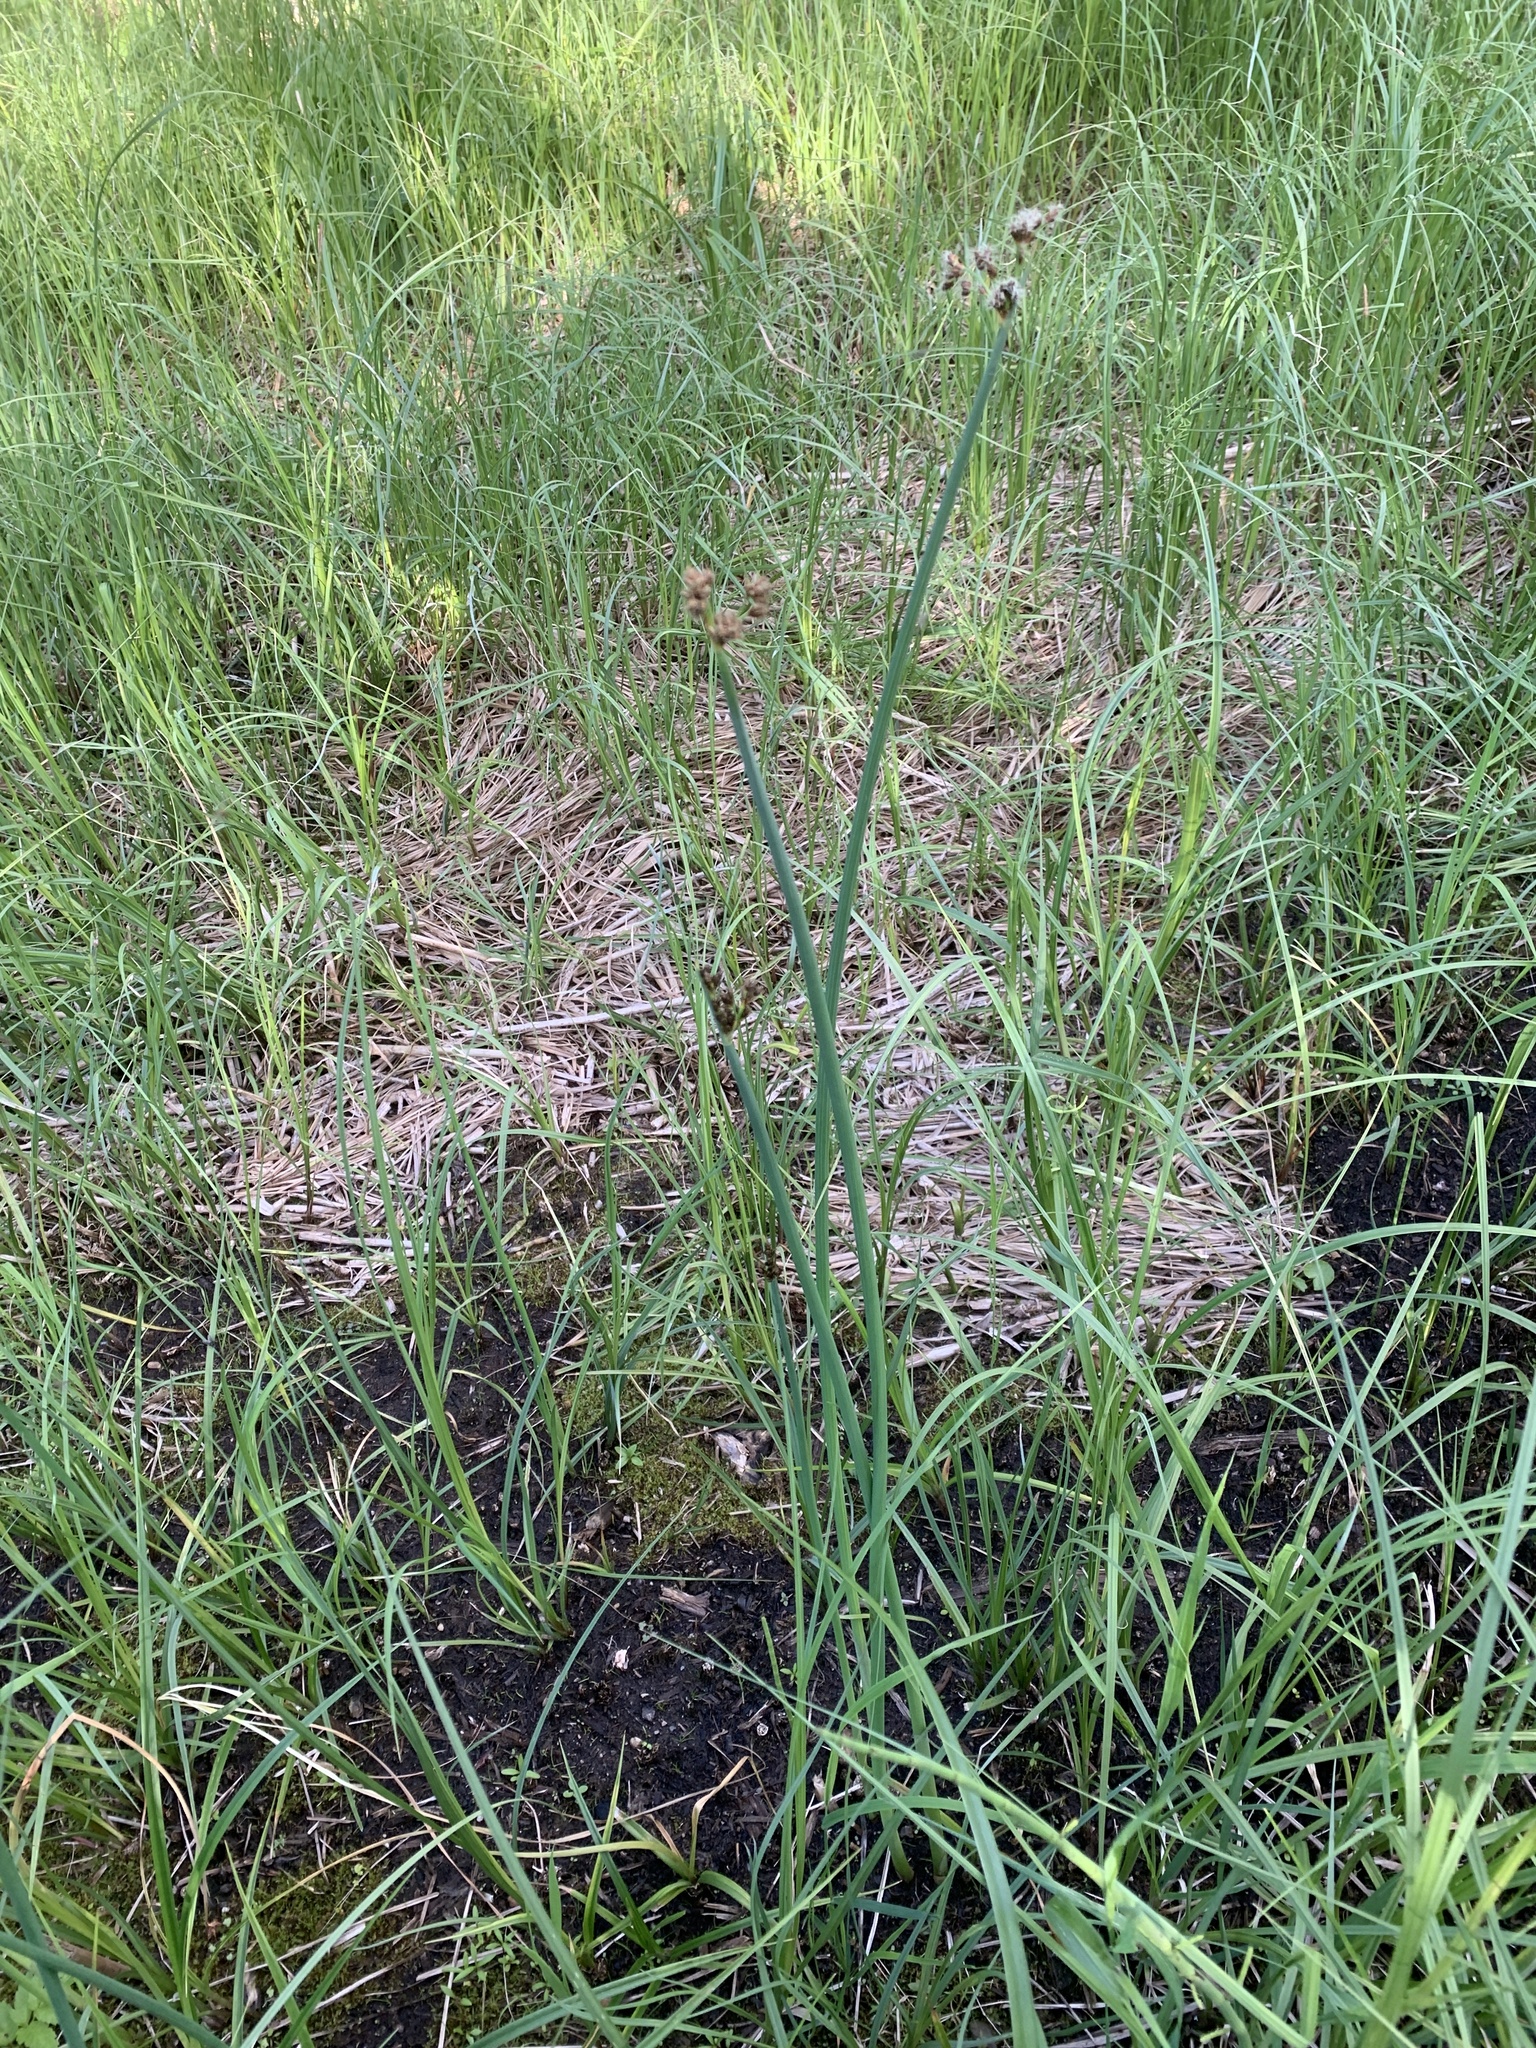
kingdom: Plantae
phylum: Tracheophyta
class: Liliopsida
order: Poales
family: Cyperaceae
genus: Schoenoplectus
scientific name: Schoenoplectus tabernaemontani
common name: Grey club-rush
